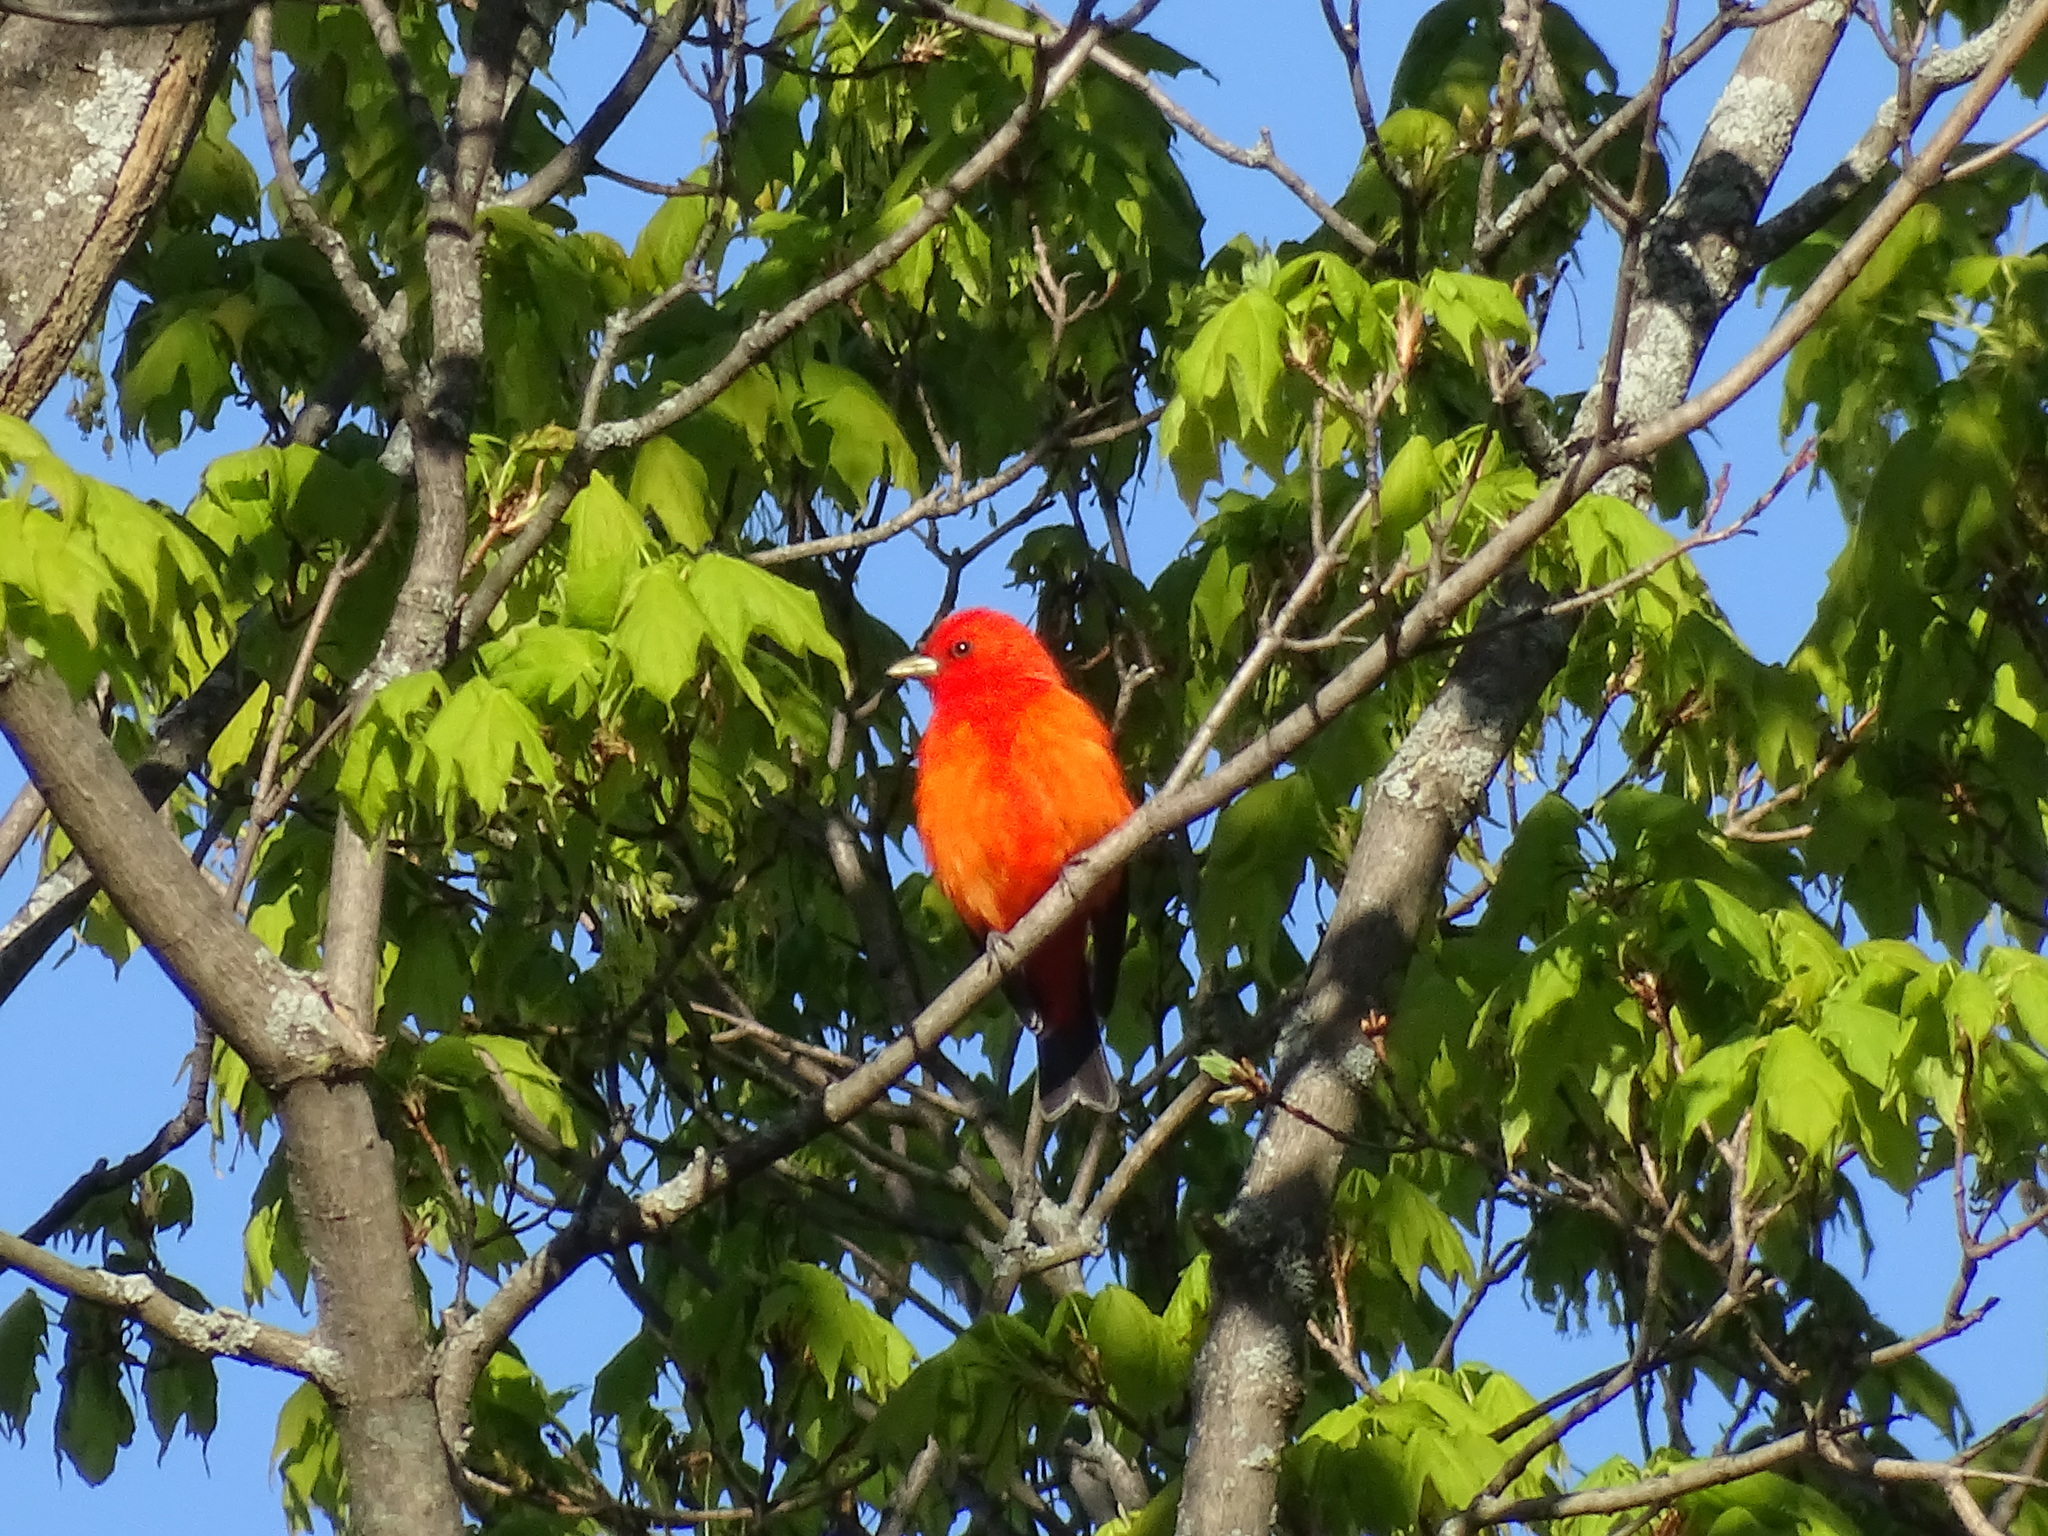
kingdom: Animalia
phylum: Chordata
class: Aves
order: Passeriformes
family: Cardinalidae
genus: Piranga
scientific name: Piranga olivacea
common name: Scarlet tanager
